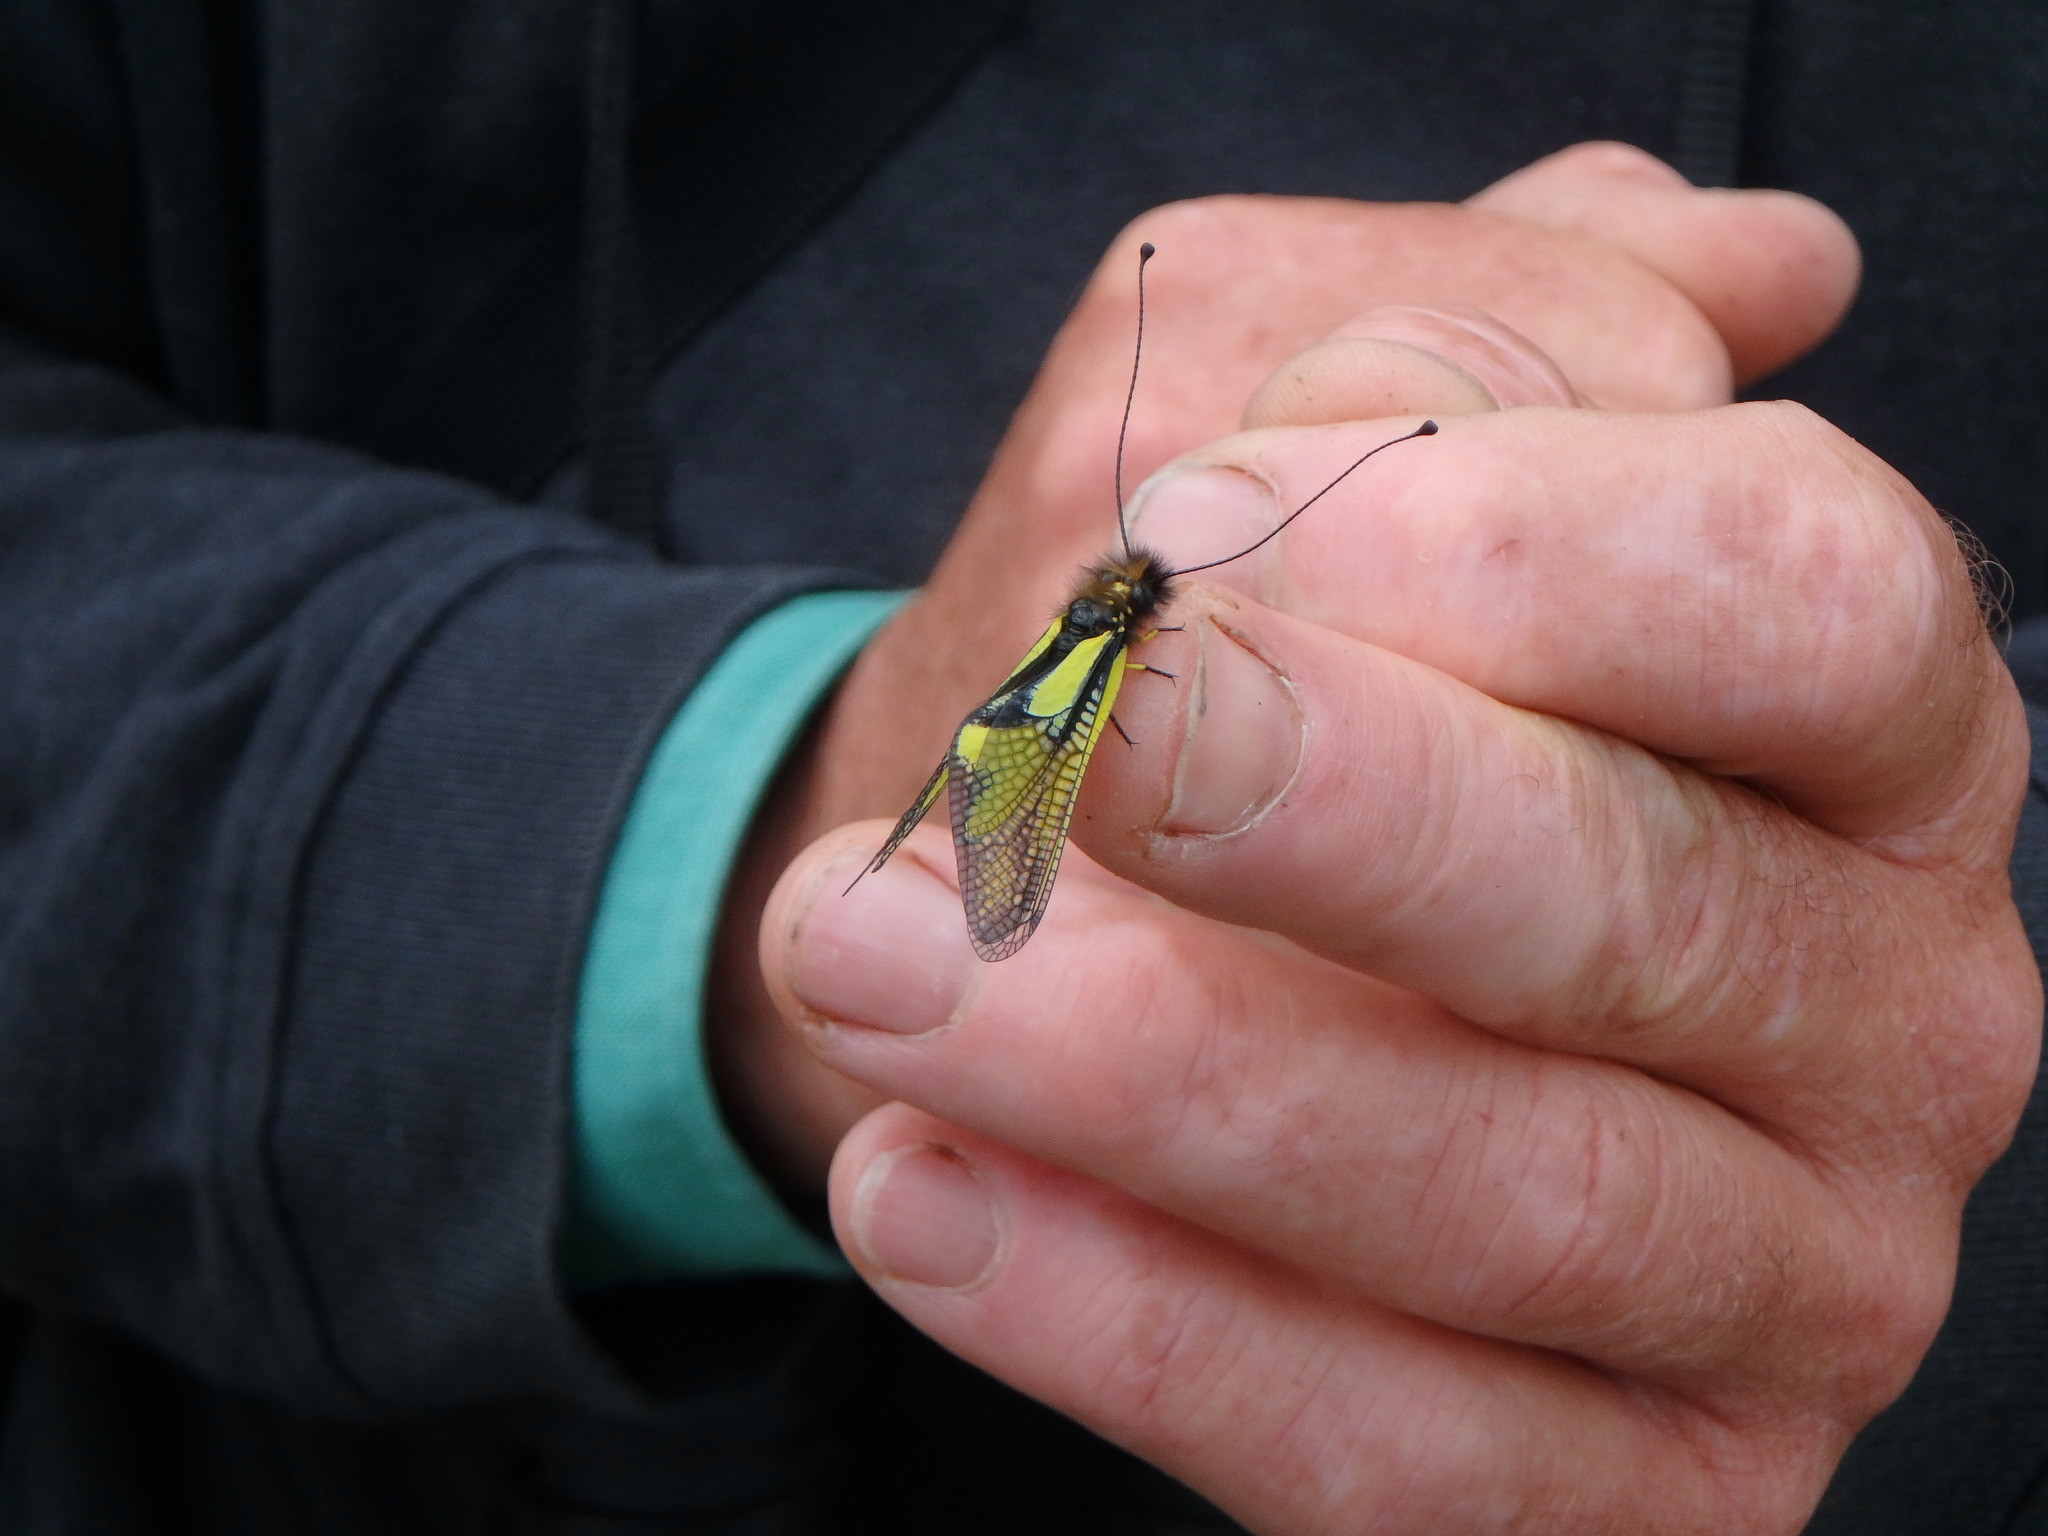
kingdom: Animalia
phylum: Arthropoda
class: Insecta
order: Neuroptera
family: Ascalaphidae
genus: Libelloides
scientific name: Libelloides coccajus
